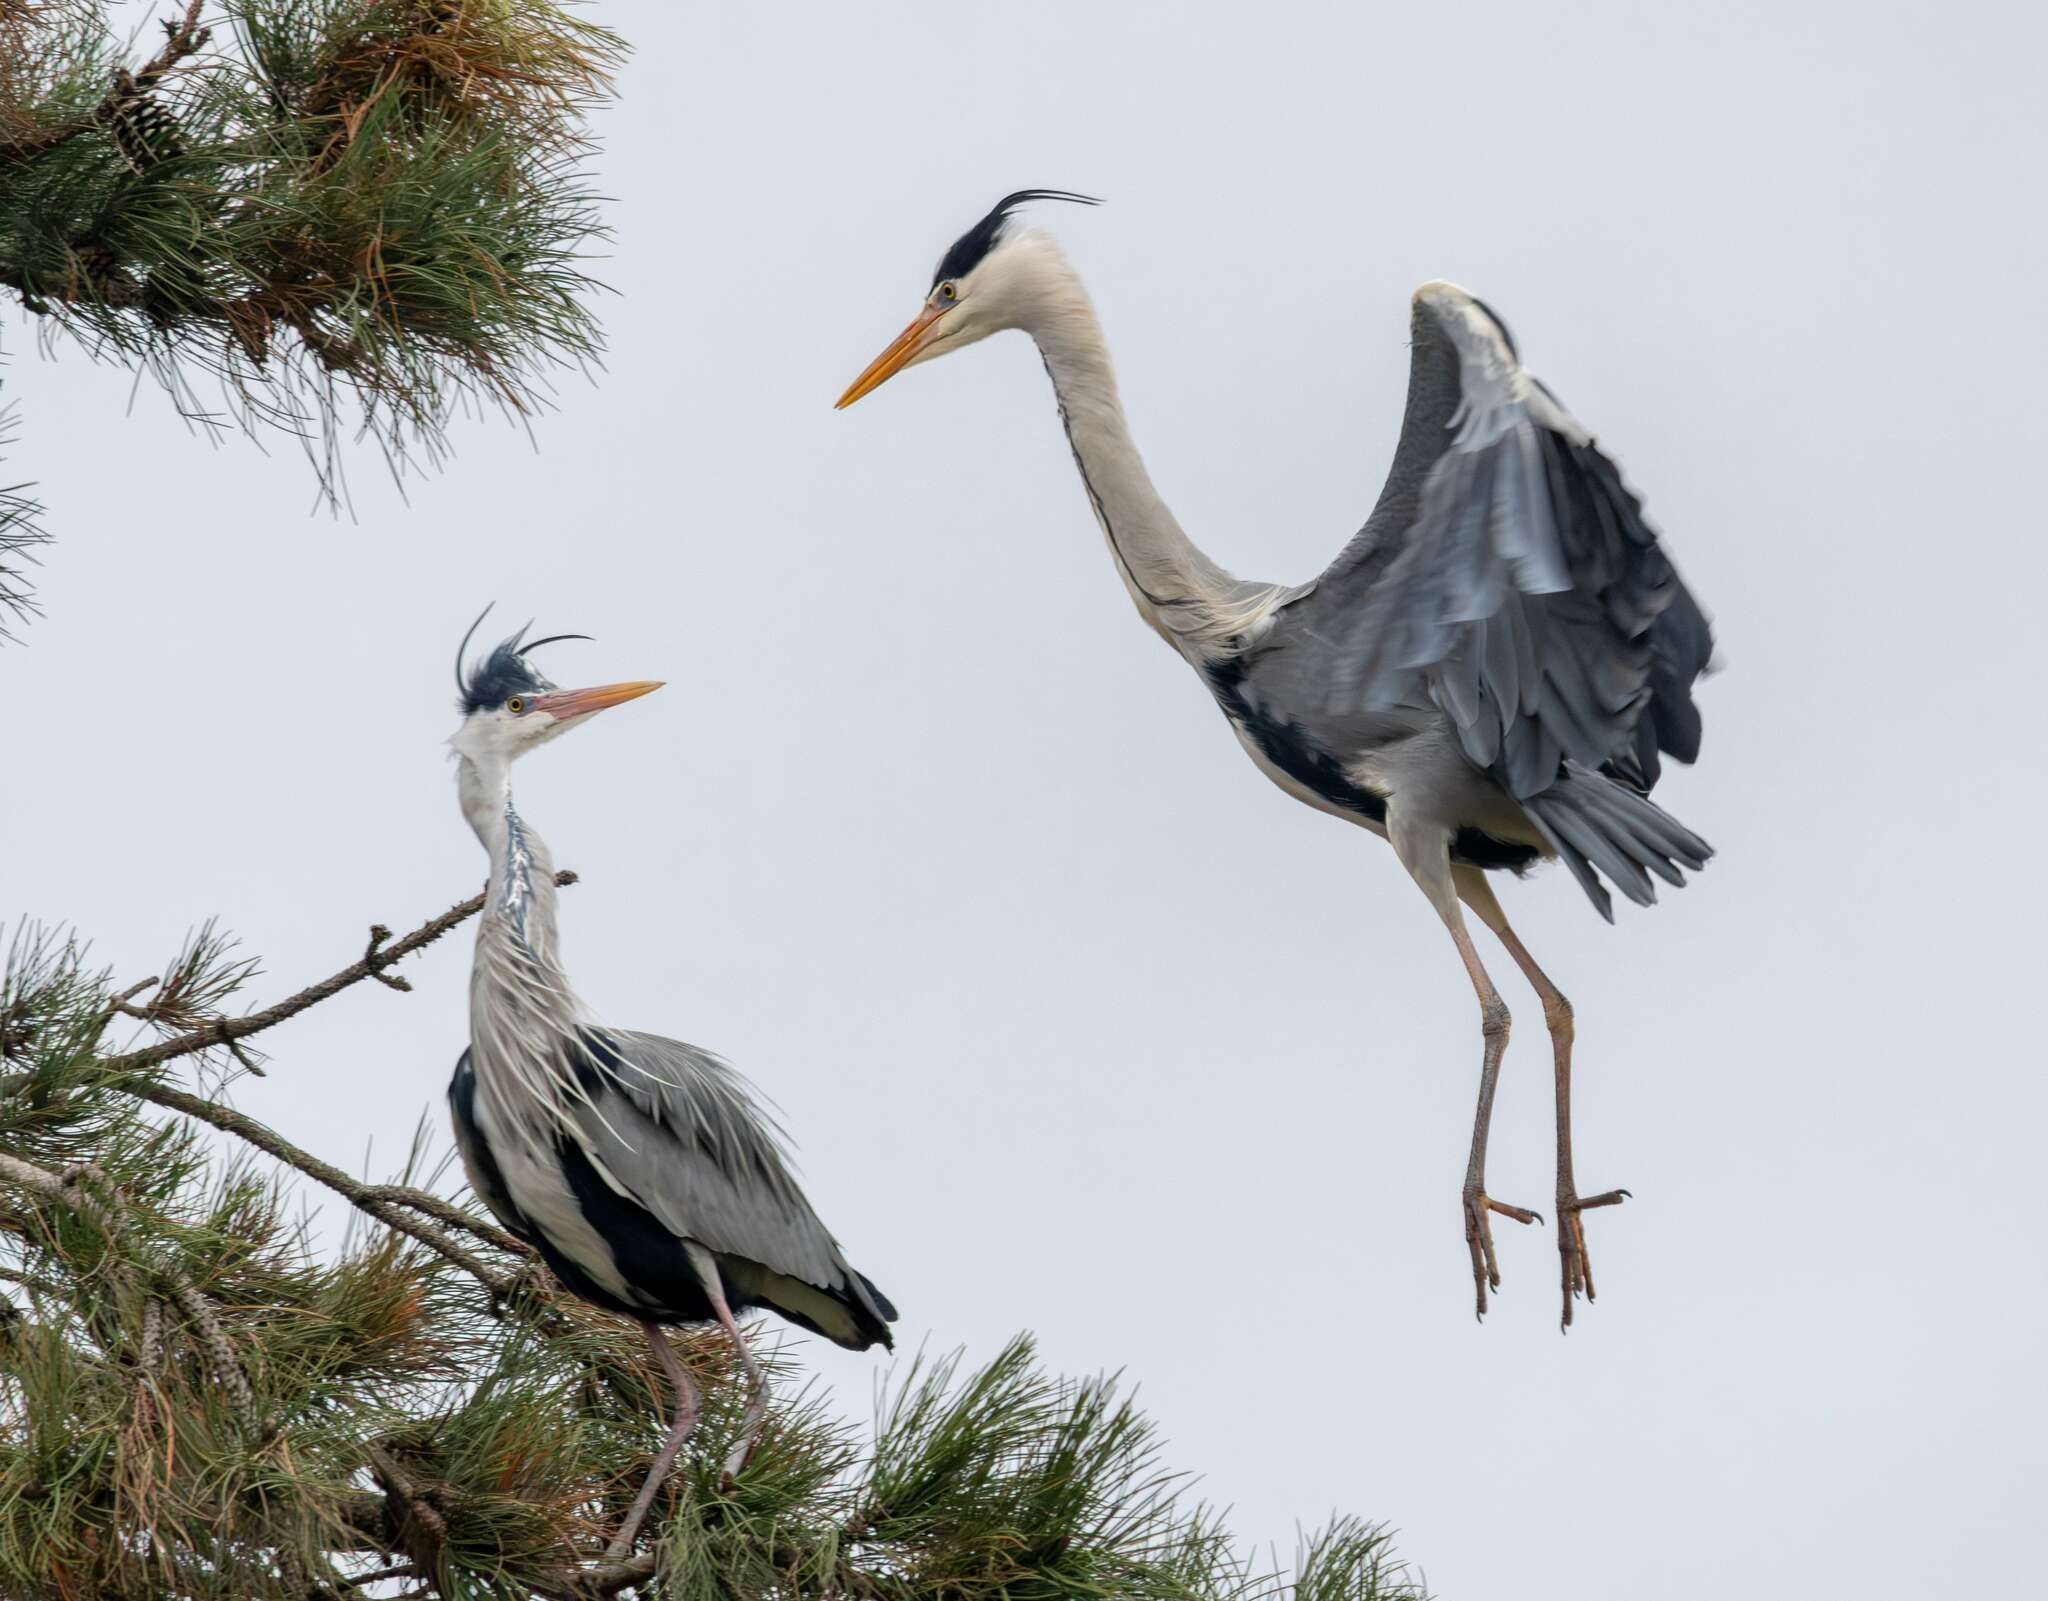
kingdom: Animalia
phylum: Chordata
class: Aves
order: Pelecaniformes
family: Ardeidae
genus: Ardea
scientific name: Ardea cinerea
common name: Grey heron
